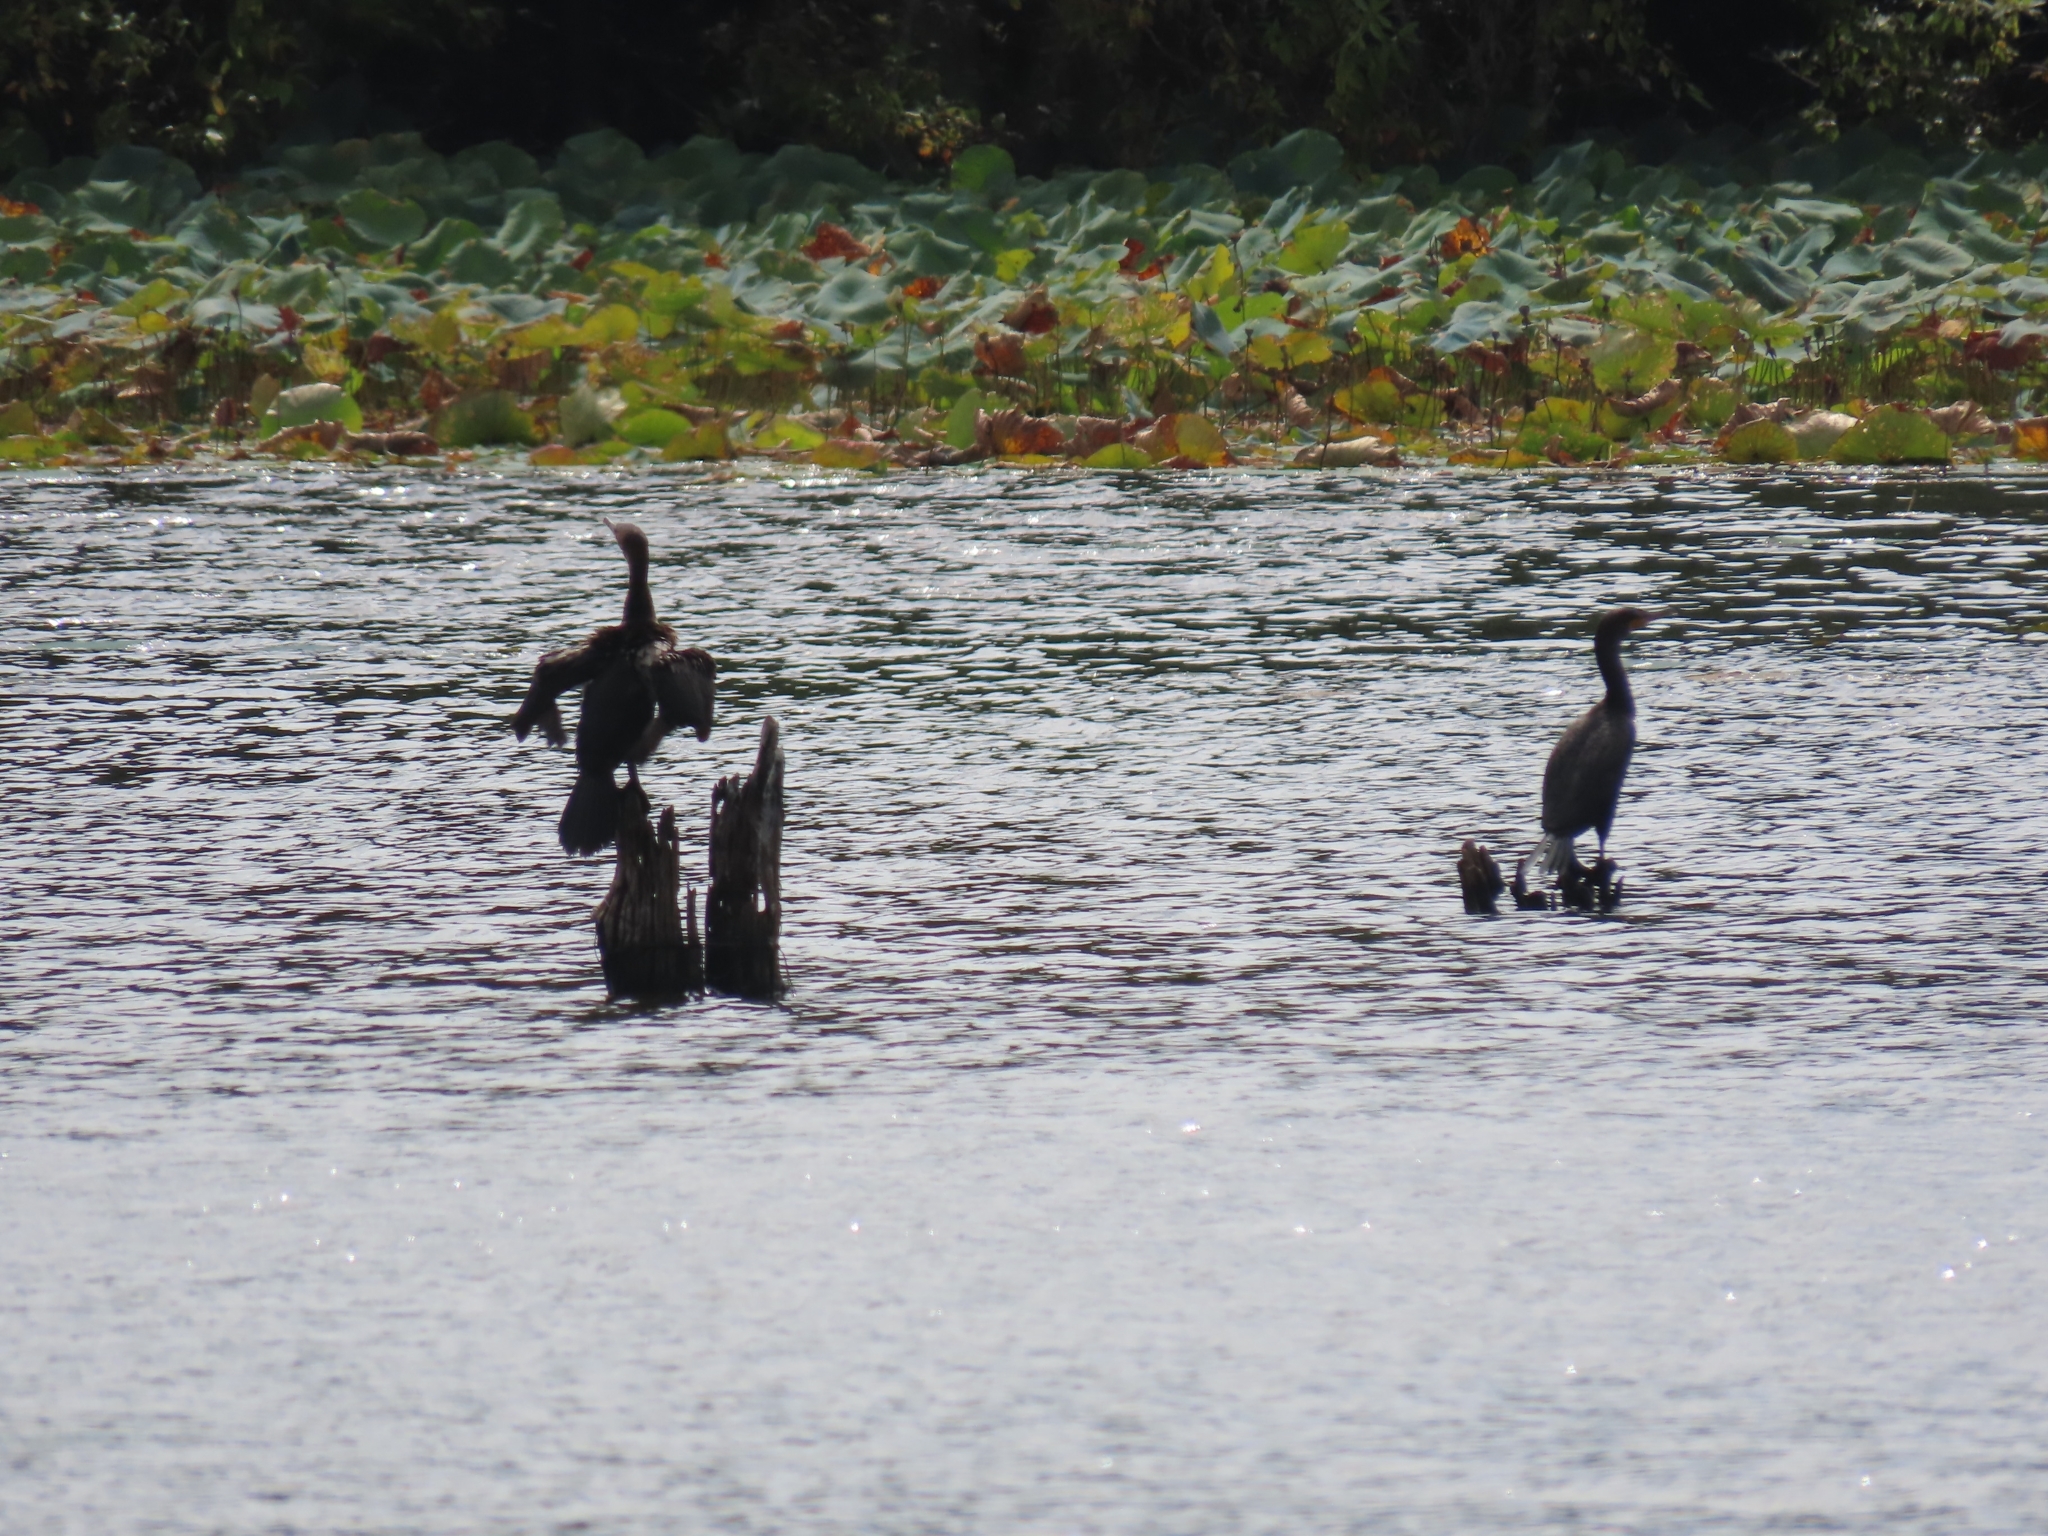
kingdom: Animalia
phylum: Chordata
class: Aves
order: Suliformes
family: Phalacrocoracidae
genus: Phalacrocorax
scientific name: Phalacrocorax auritus
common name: Double-crested cormorant
